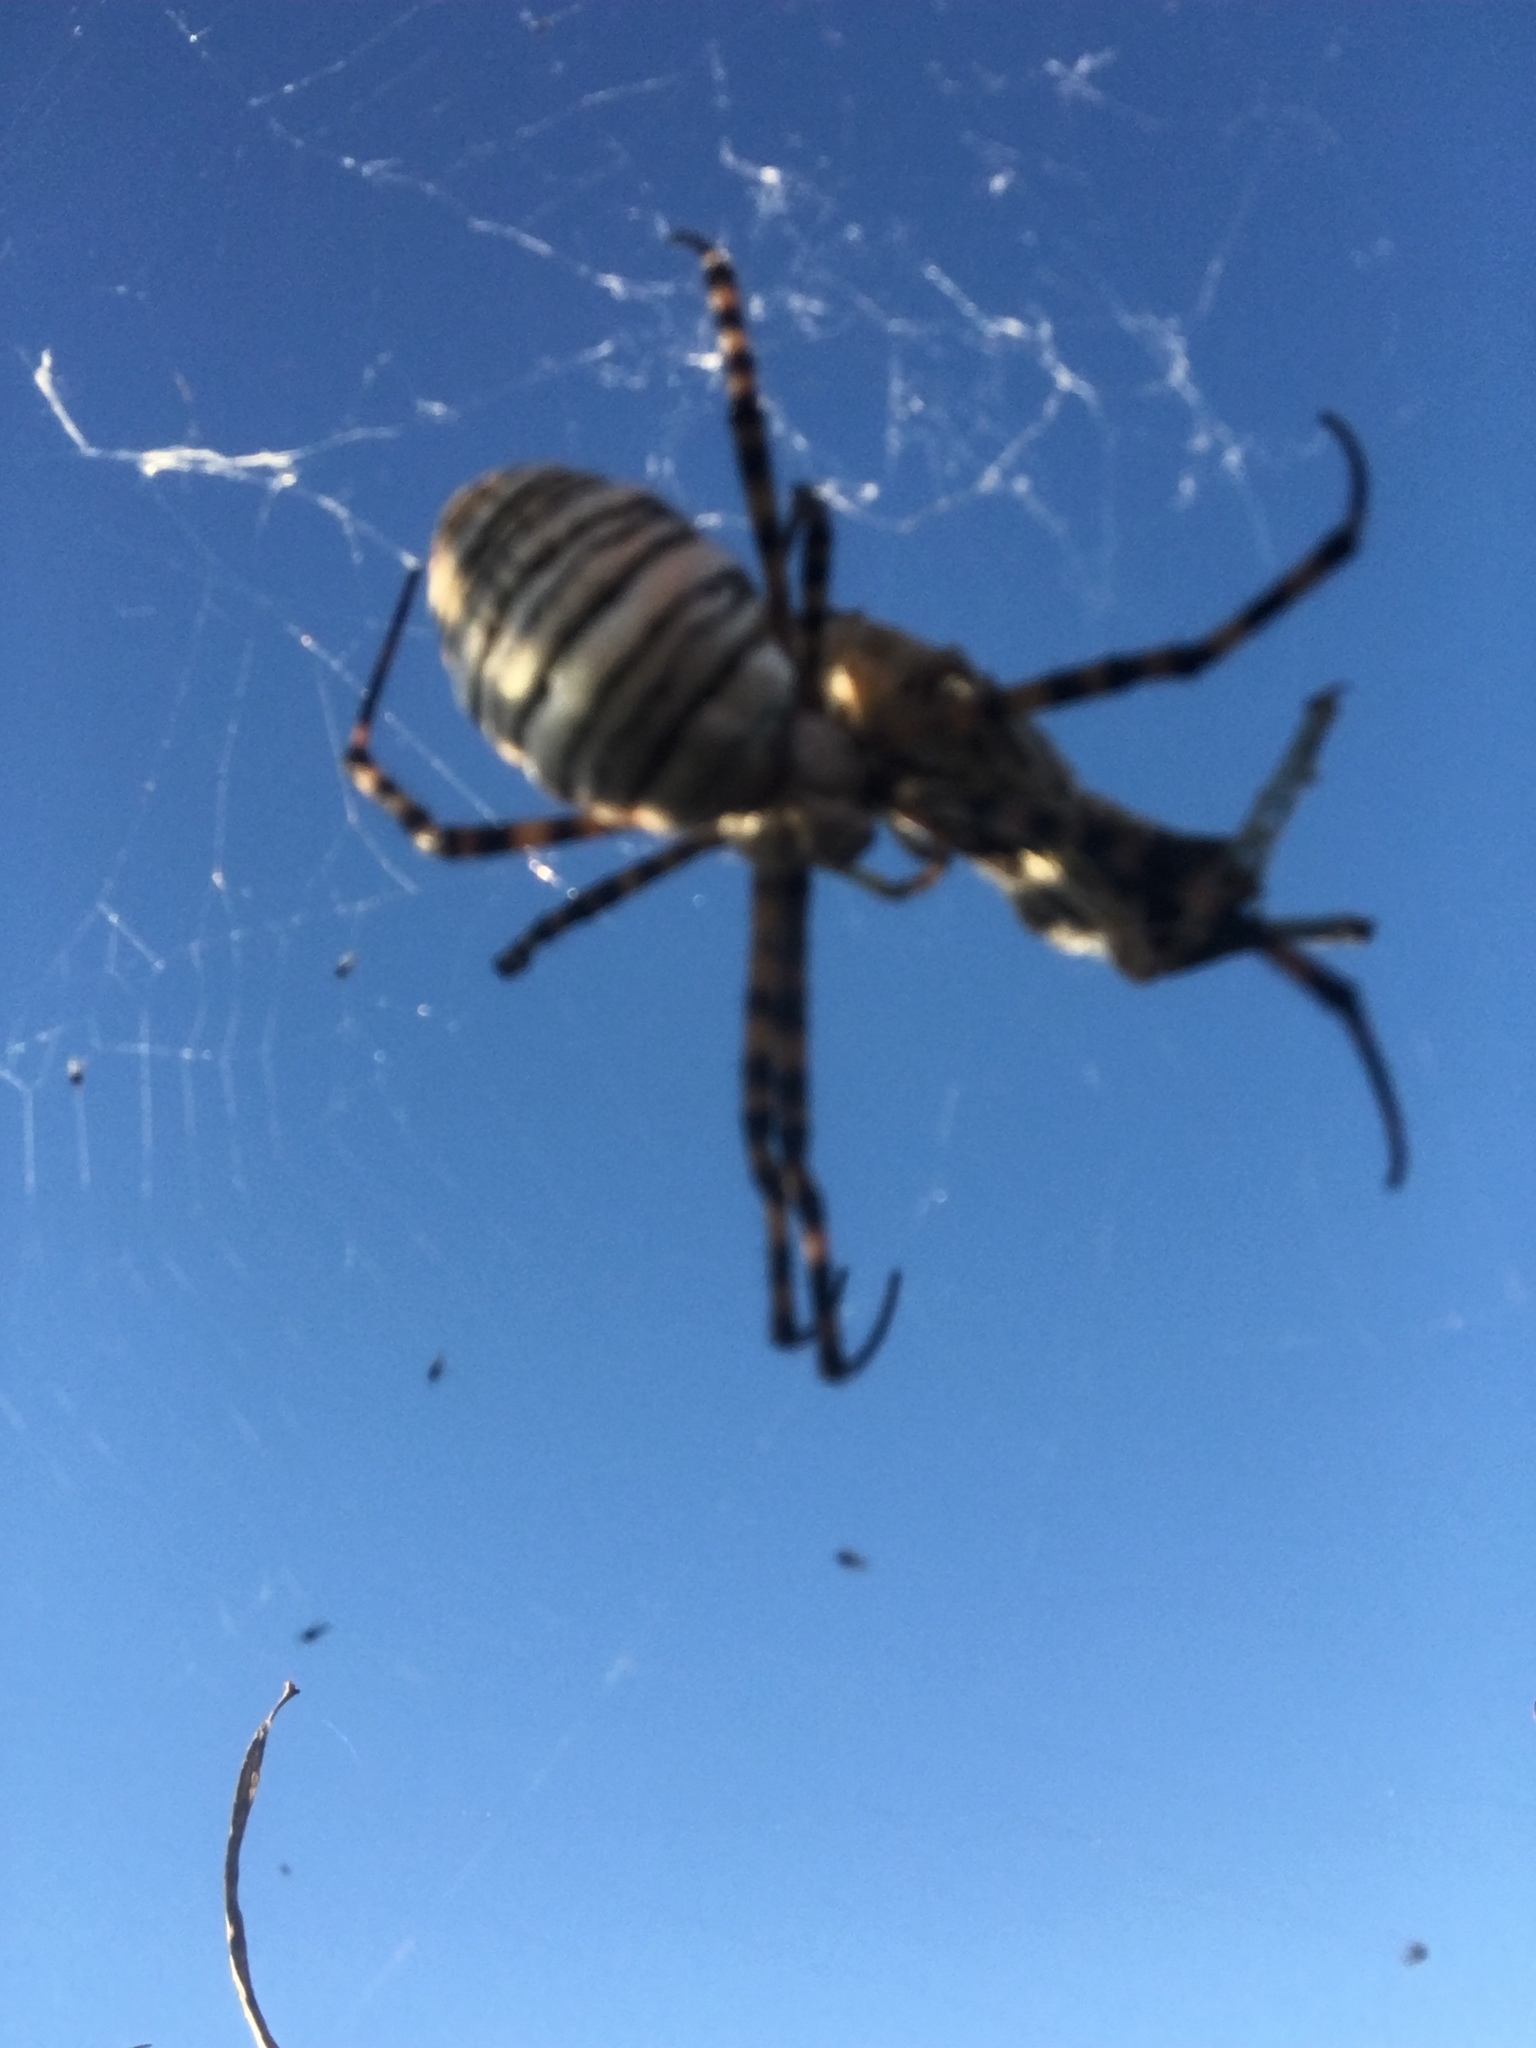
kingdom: Animalia
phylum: Arthropoda
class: Arachnida
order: Araneae
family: Araneidae
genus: Argiope
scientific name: Argiope trifasciata
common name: Banded garden spider
